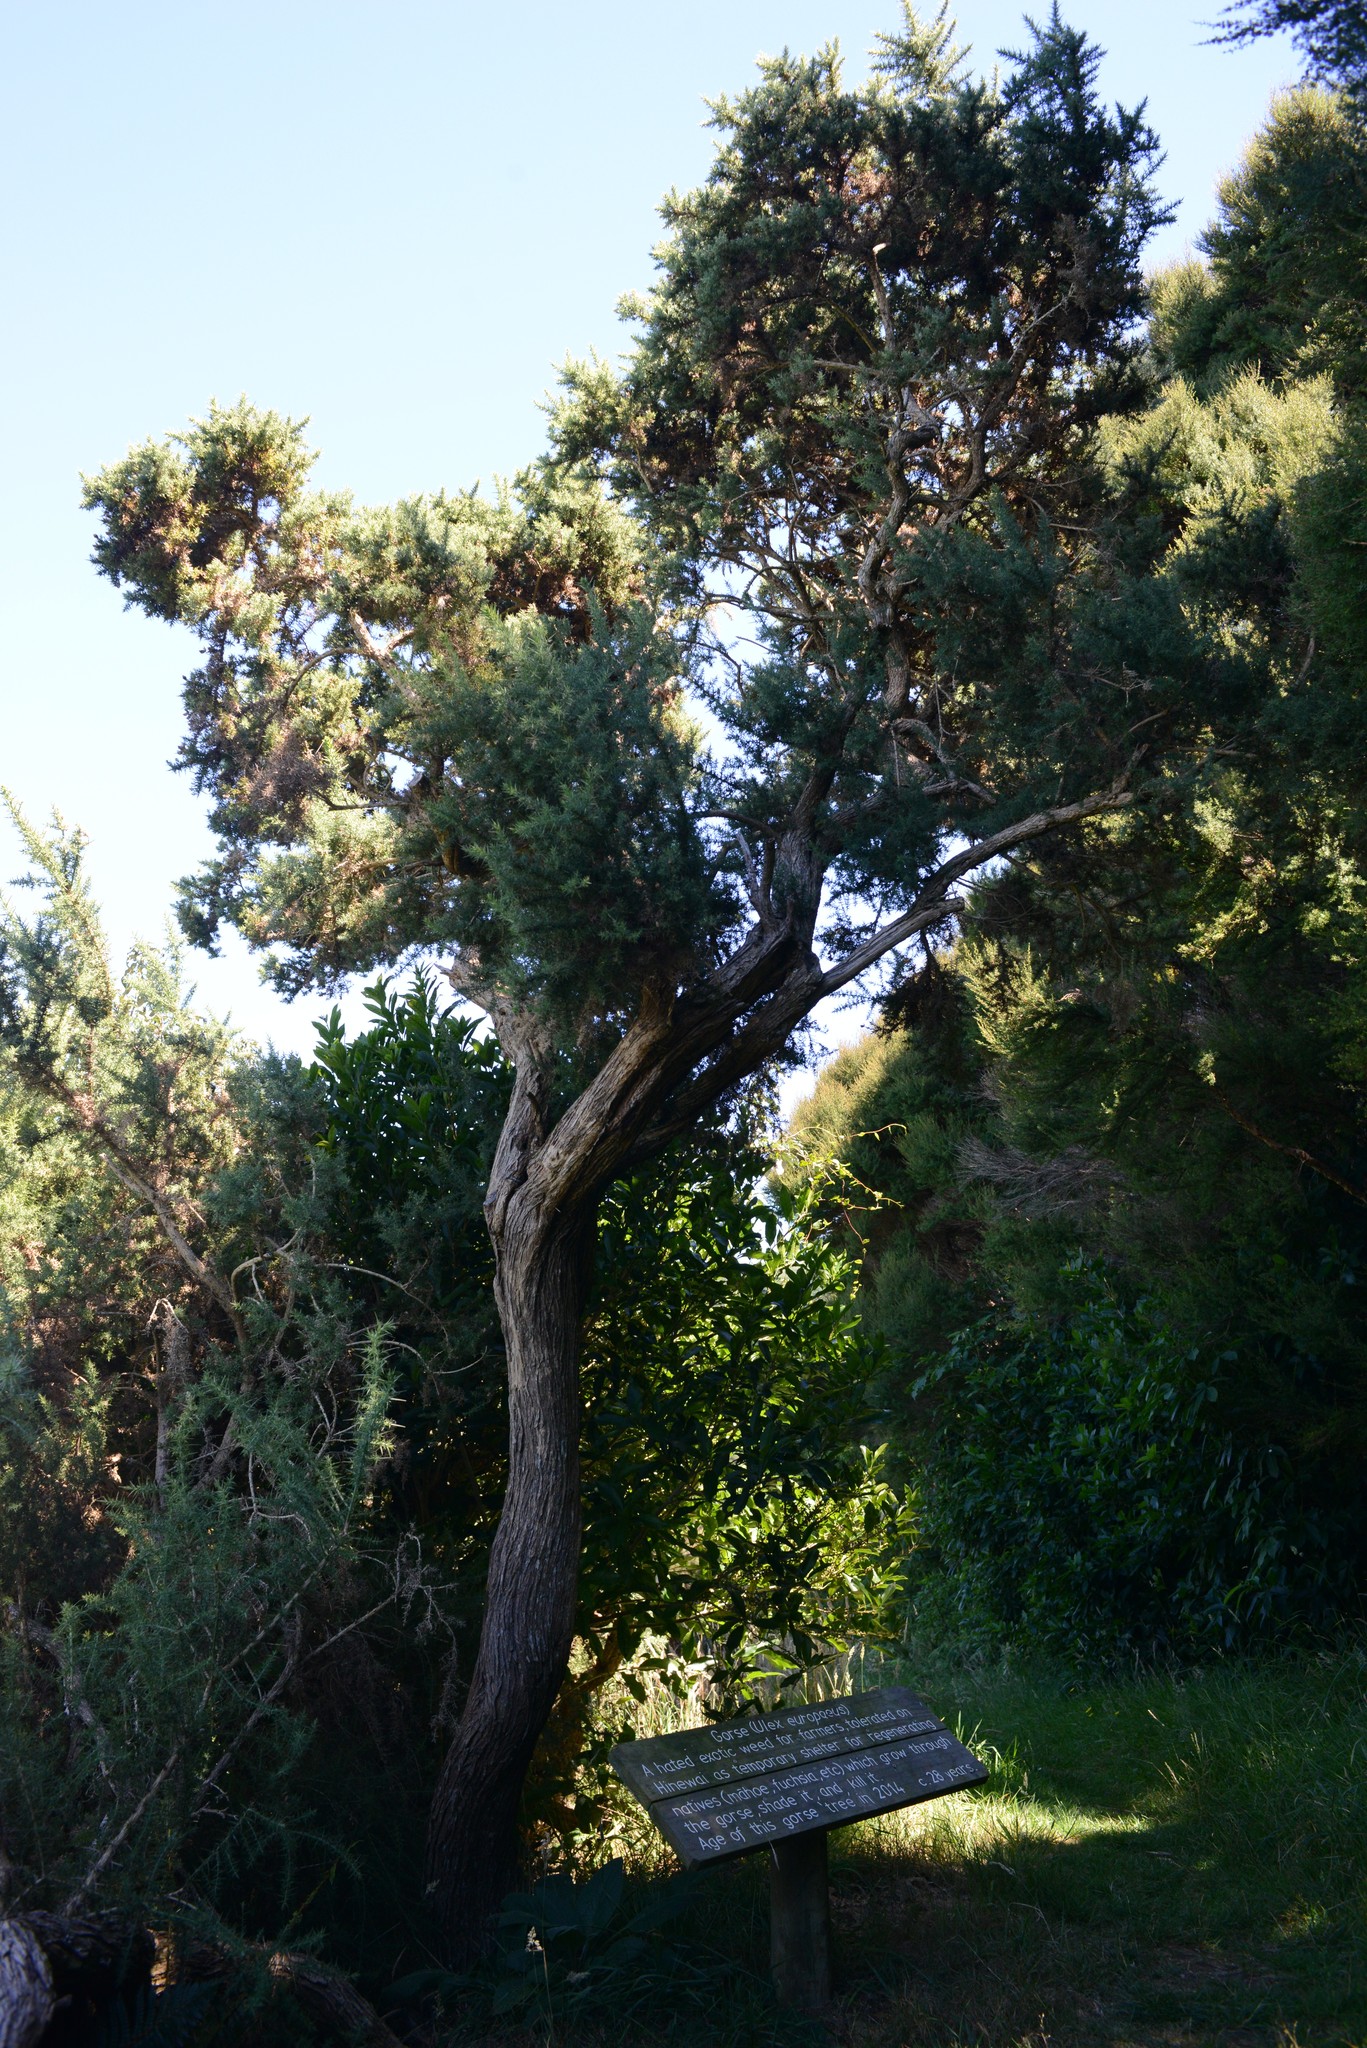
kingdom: Plantae
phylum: Tracheophyta
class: Magnoliopsida
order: Fabales
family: Fabaceae
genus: Ulex
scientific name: Ulex europaeus
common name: Common gorse
